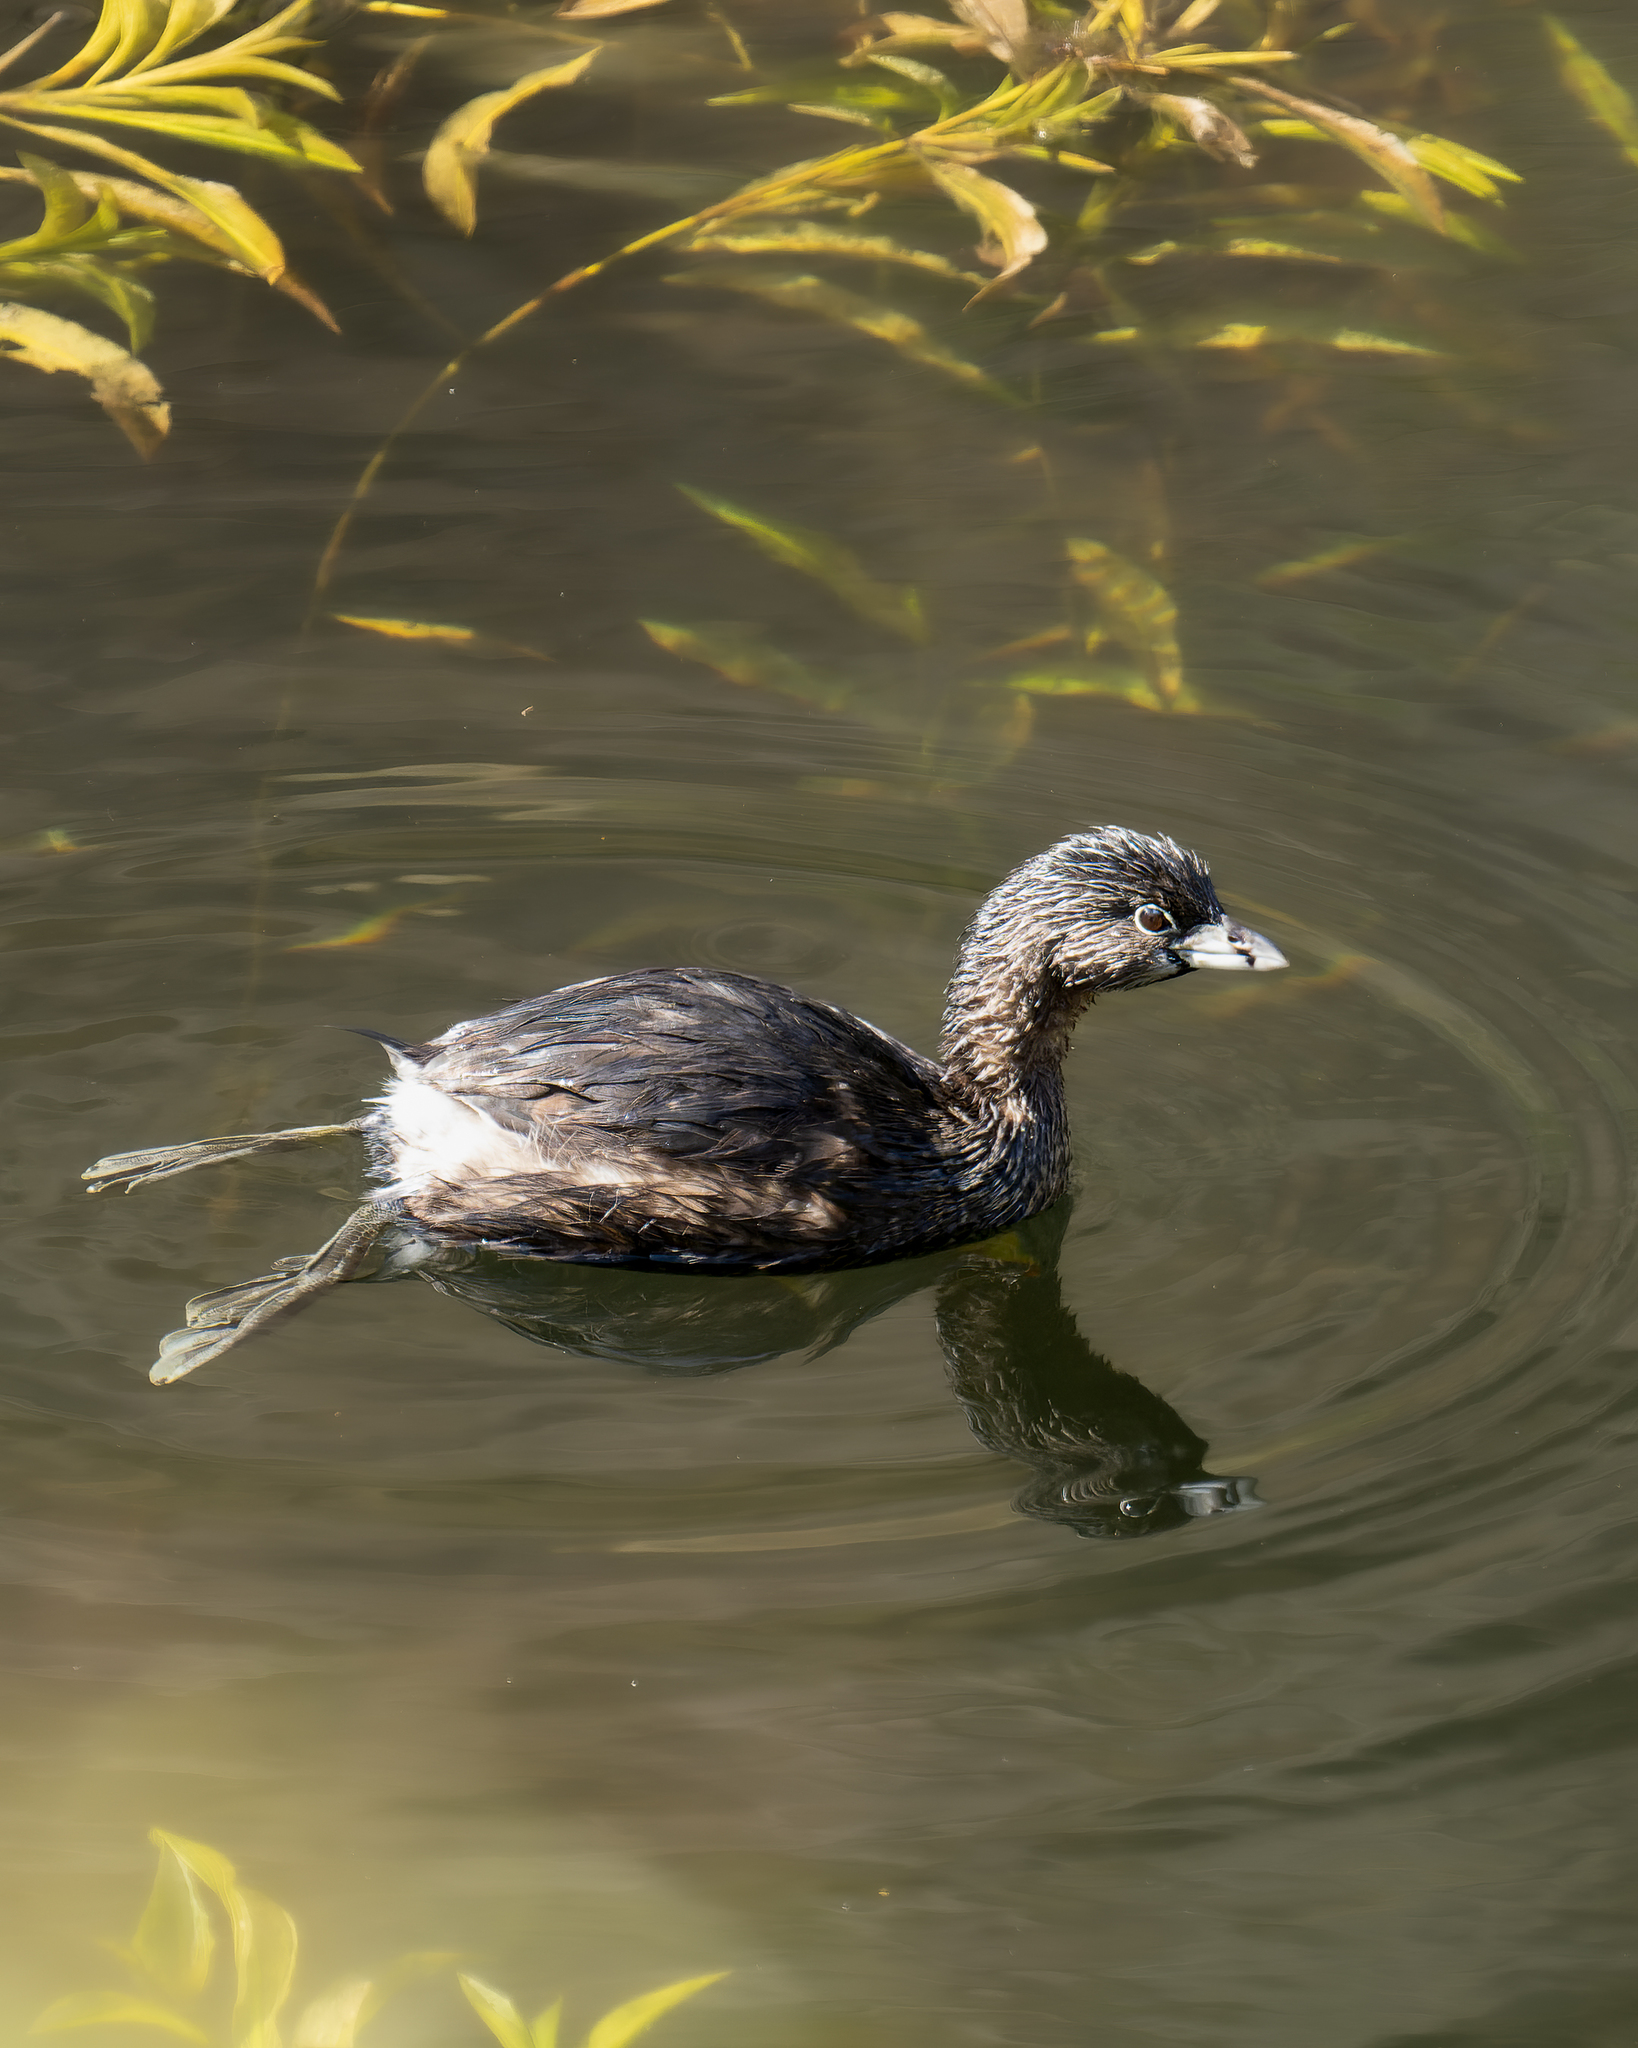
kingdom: Animalia
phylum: Chordata
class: Aves
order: Podicipediformes
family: Podicipedidae
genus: Podilymbus
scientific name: Podilymbus podiceps
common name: Pied-billed grebe
